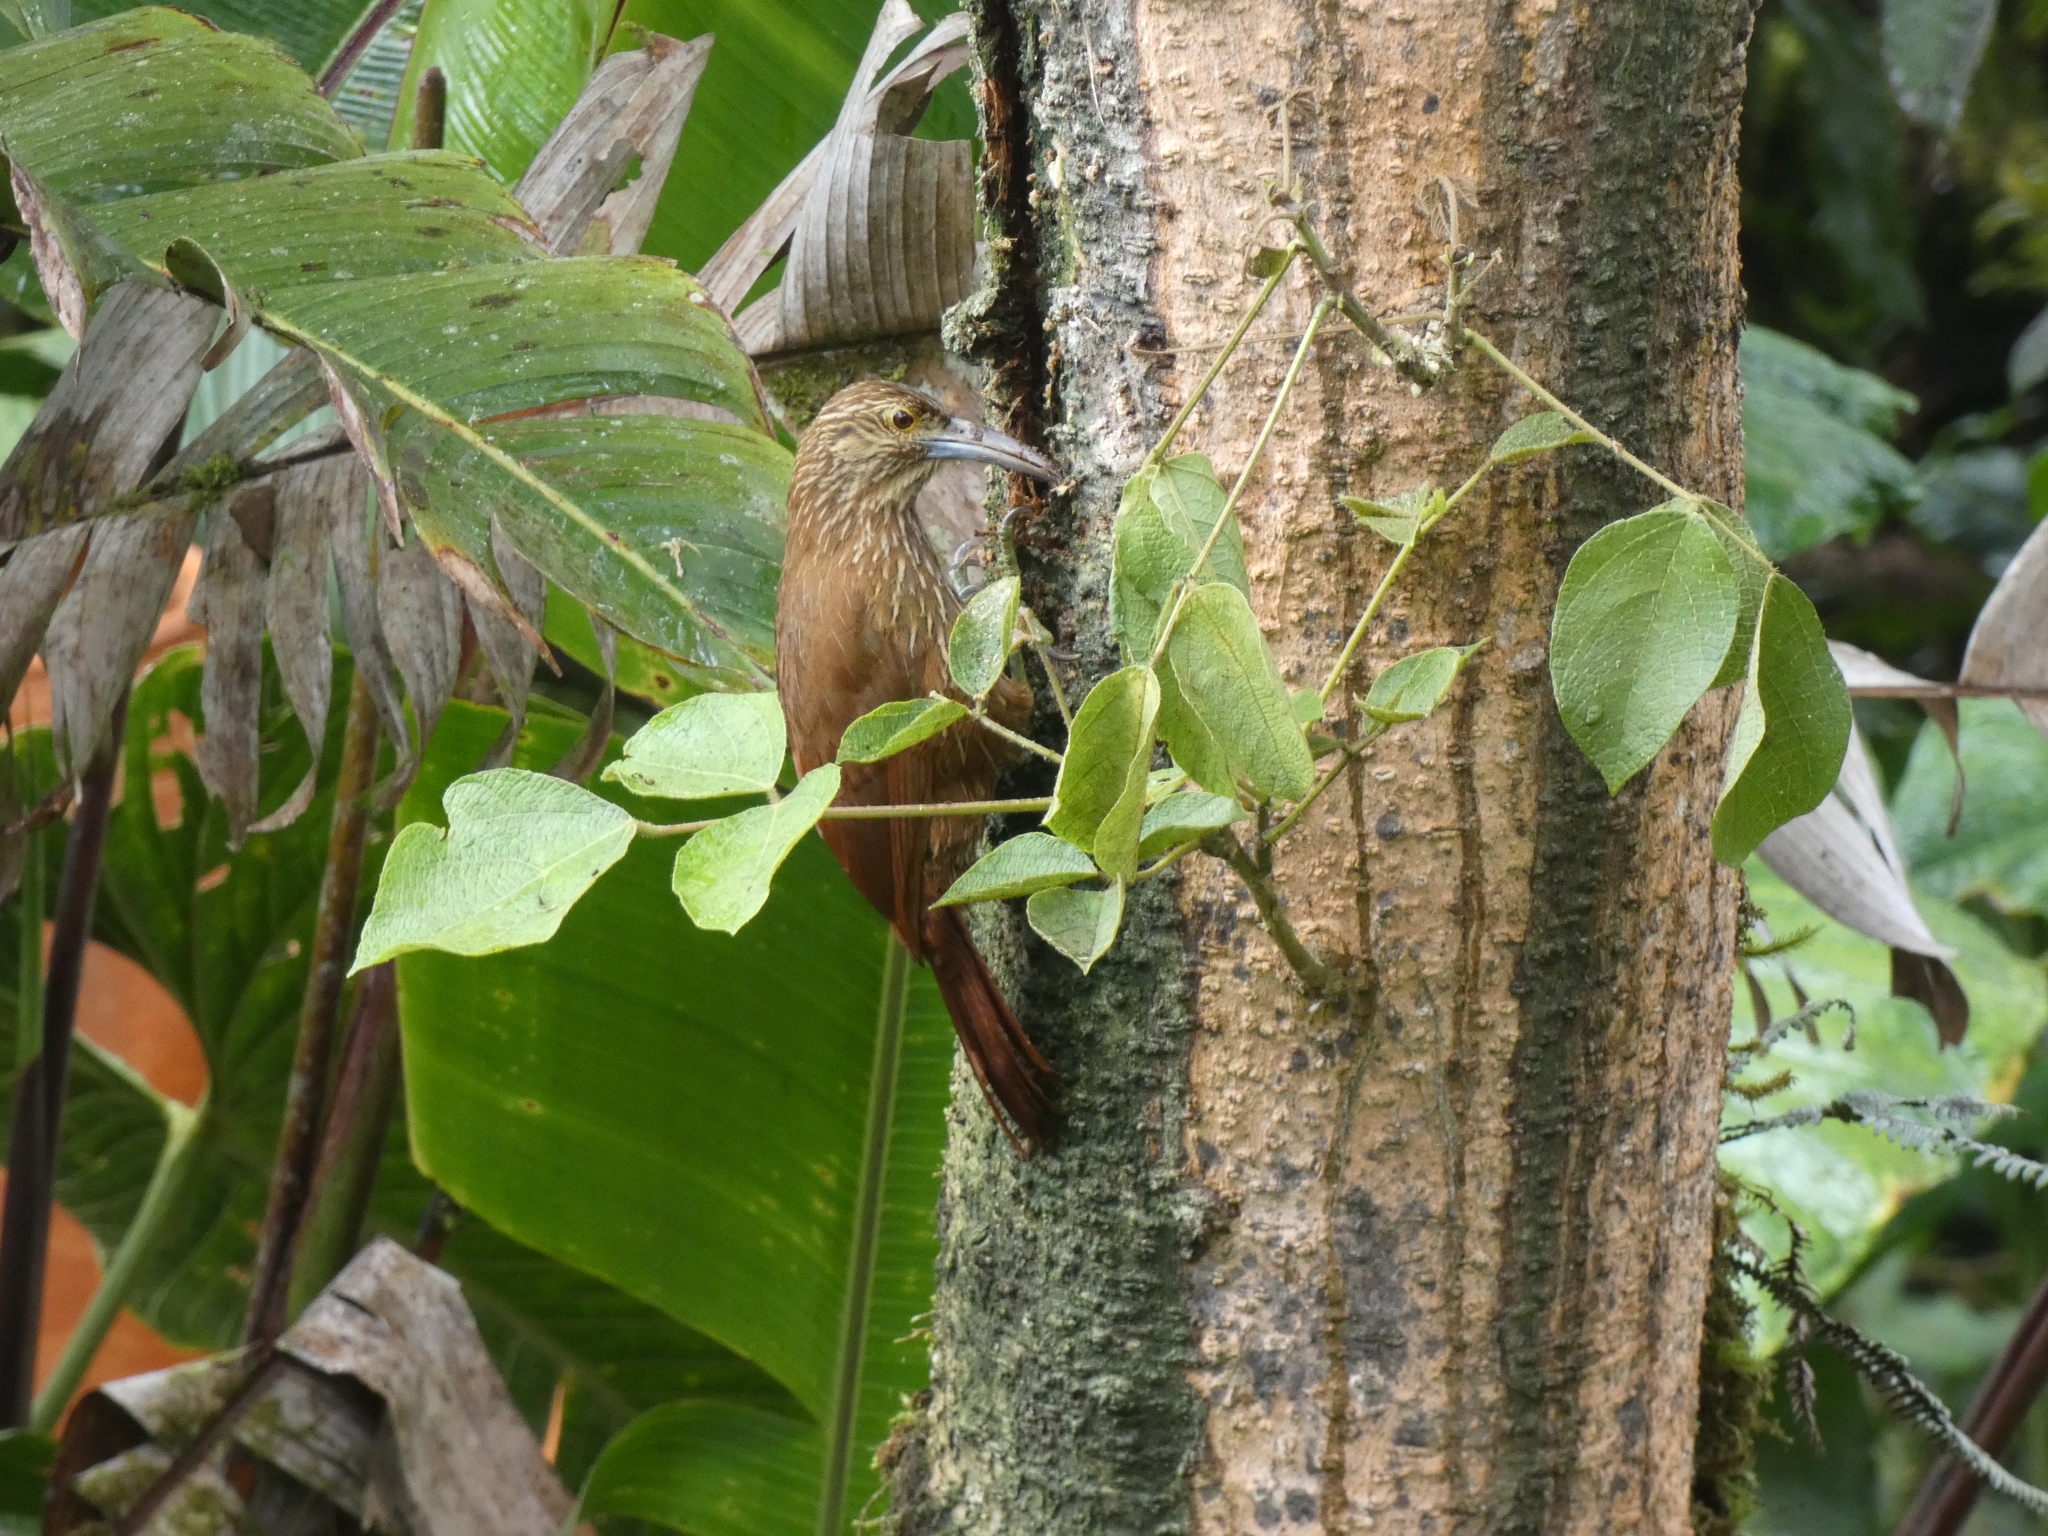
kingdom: Animalia
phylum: Chordata
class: Aves
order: Passeriformes
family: Furnariidae
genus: Xiphocolaptes
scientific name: Xiphocolaptes promeropirhynchus
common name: Strong-billed woodcreeper
